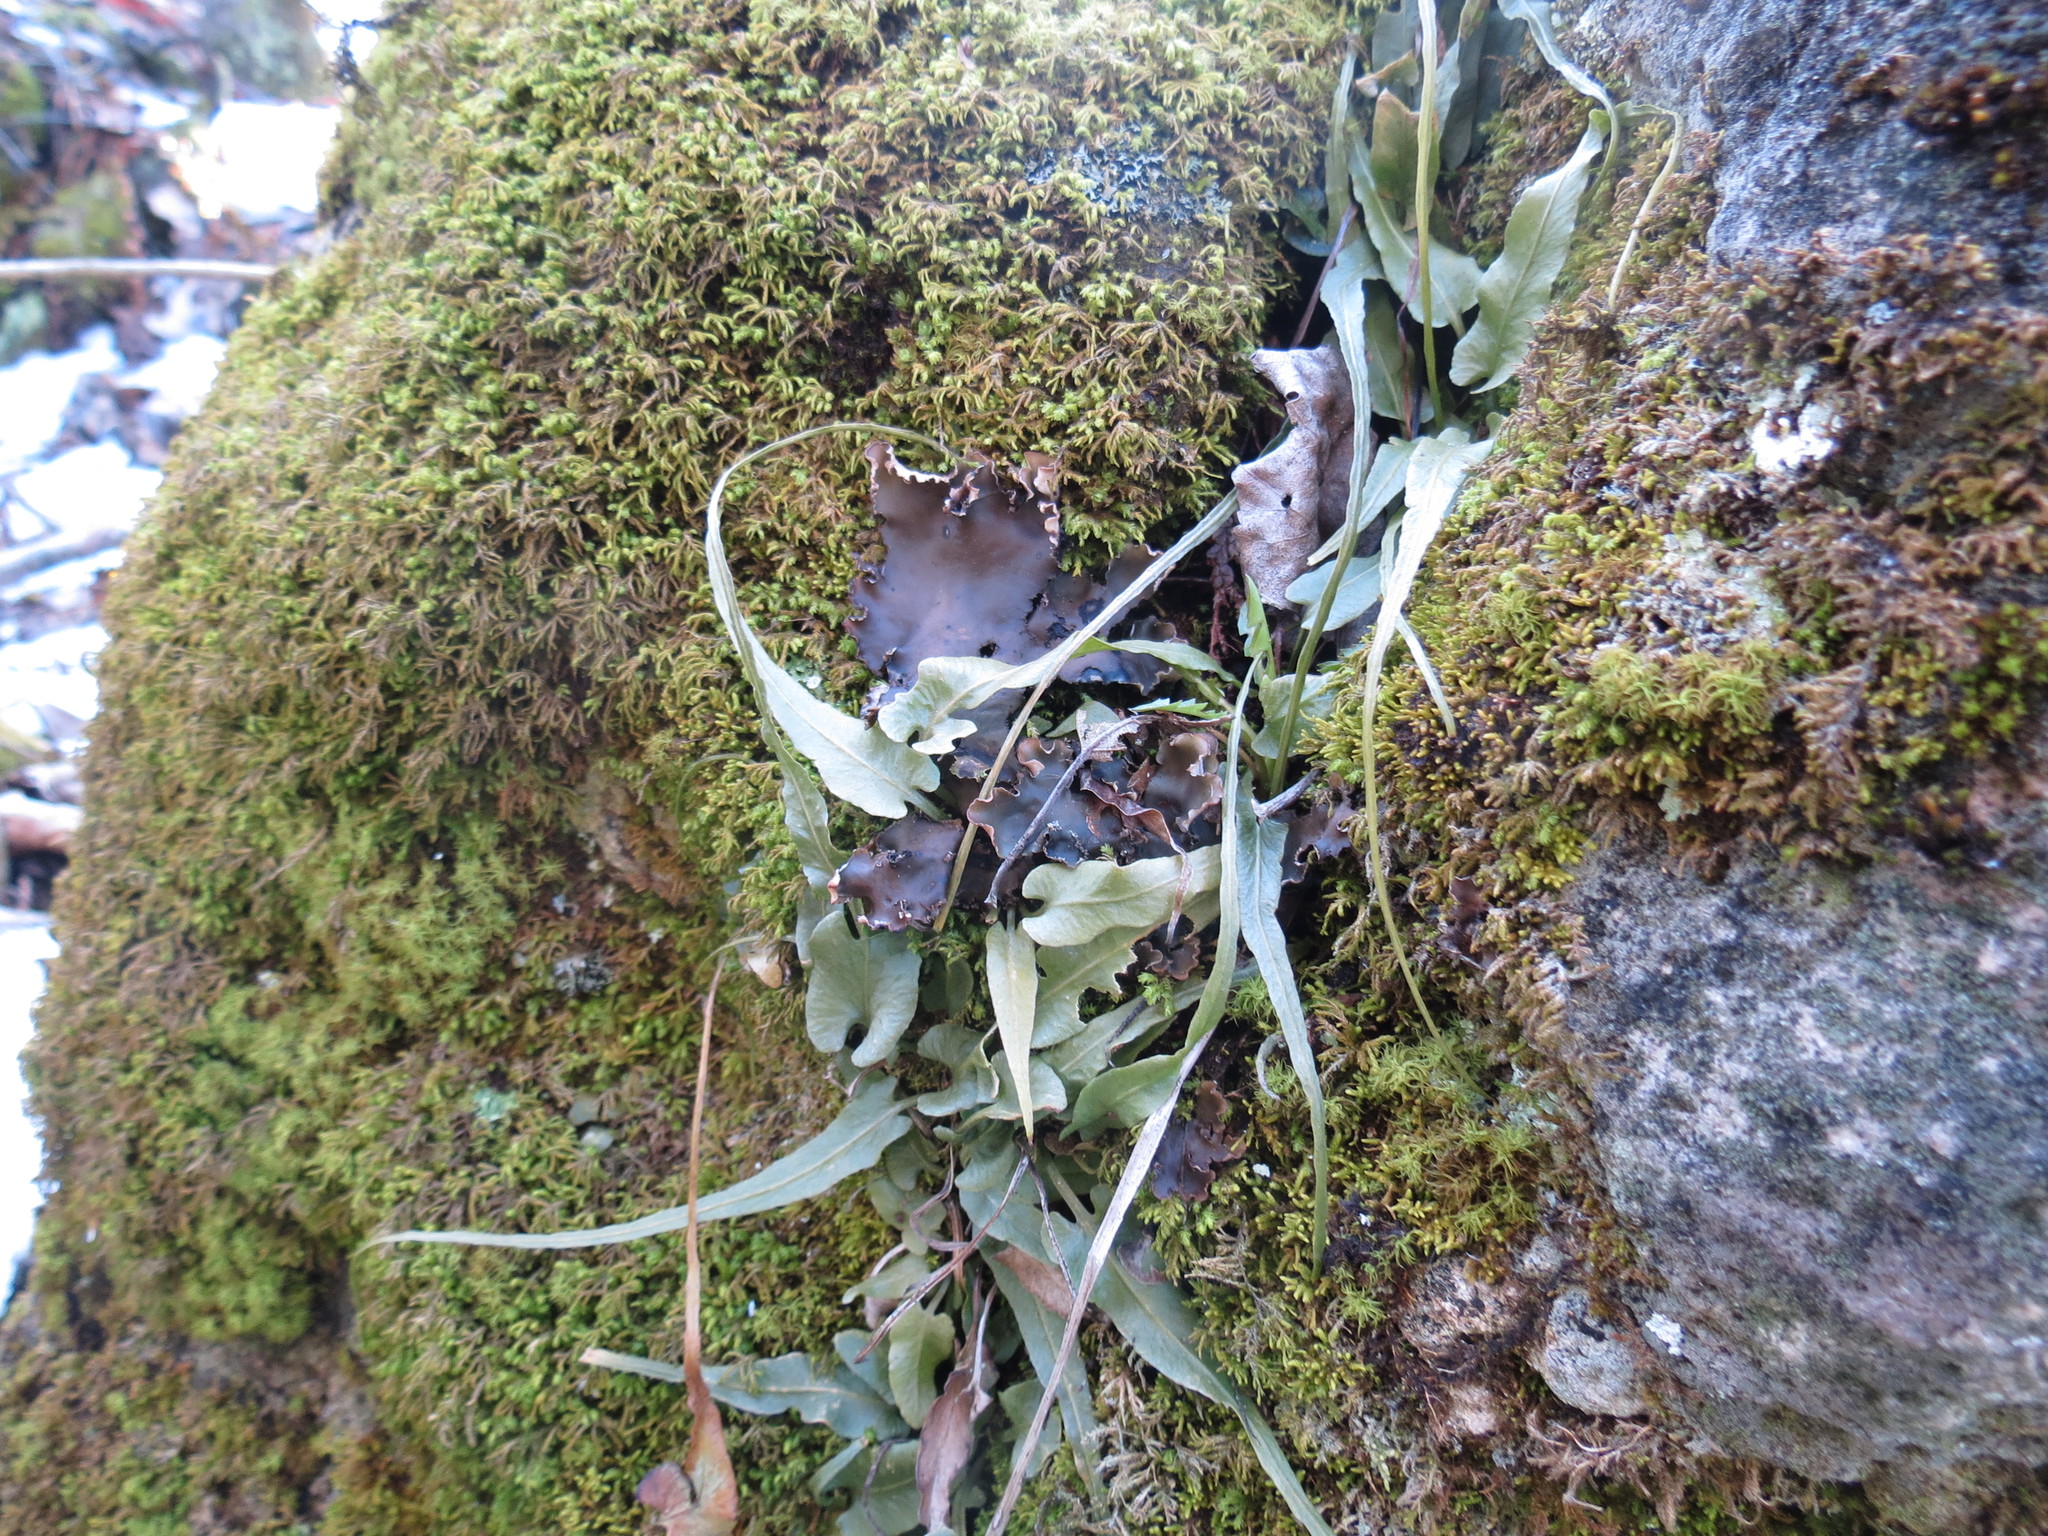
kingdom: Plantae
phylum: Tracheophyta
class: Polypodiopsida
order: Polypodiales
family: Aspleniaceae
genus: Asplenium
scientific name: Asplenium rhizophyllum
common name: Walking fern
